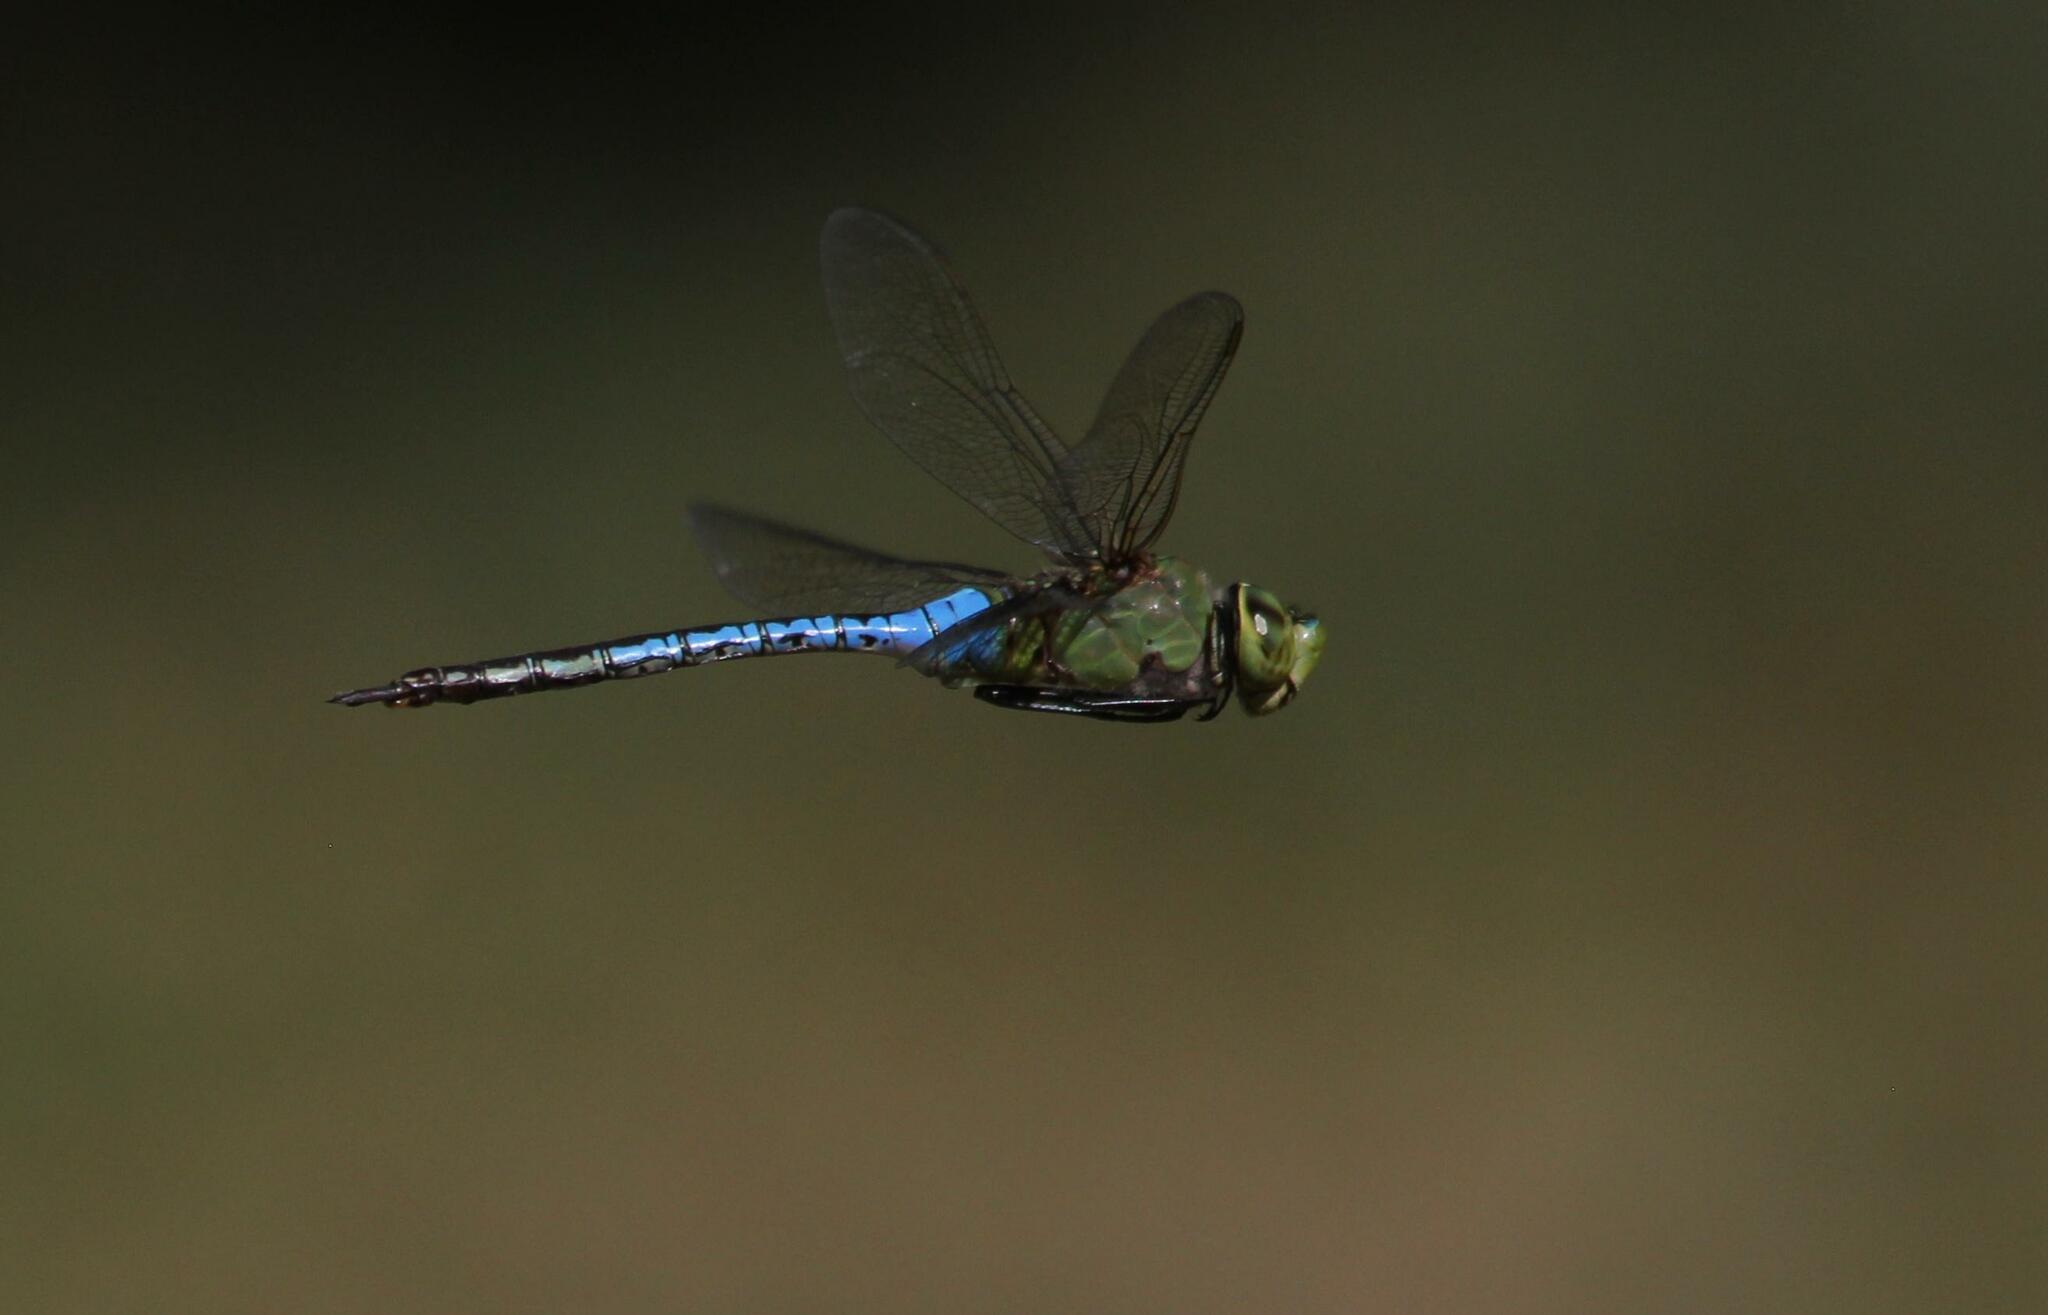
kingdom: Animalia
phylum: Arthropoda
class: Insecta
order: Odonata
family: Aeshnidae
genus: Anax
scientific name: Anax junius
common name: Common green darner
